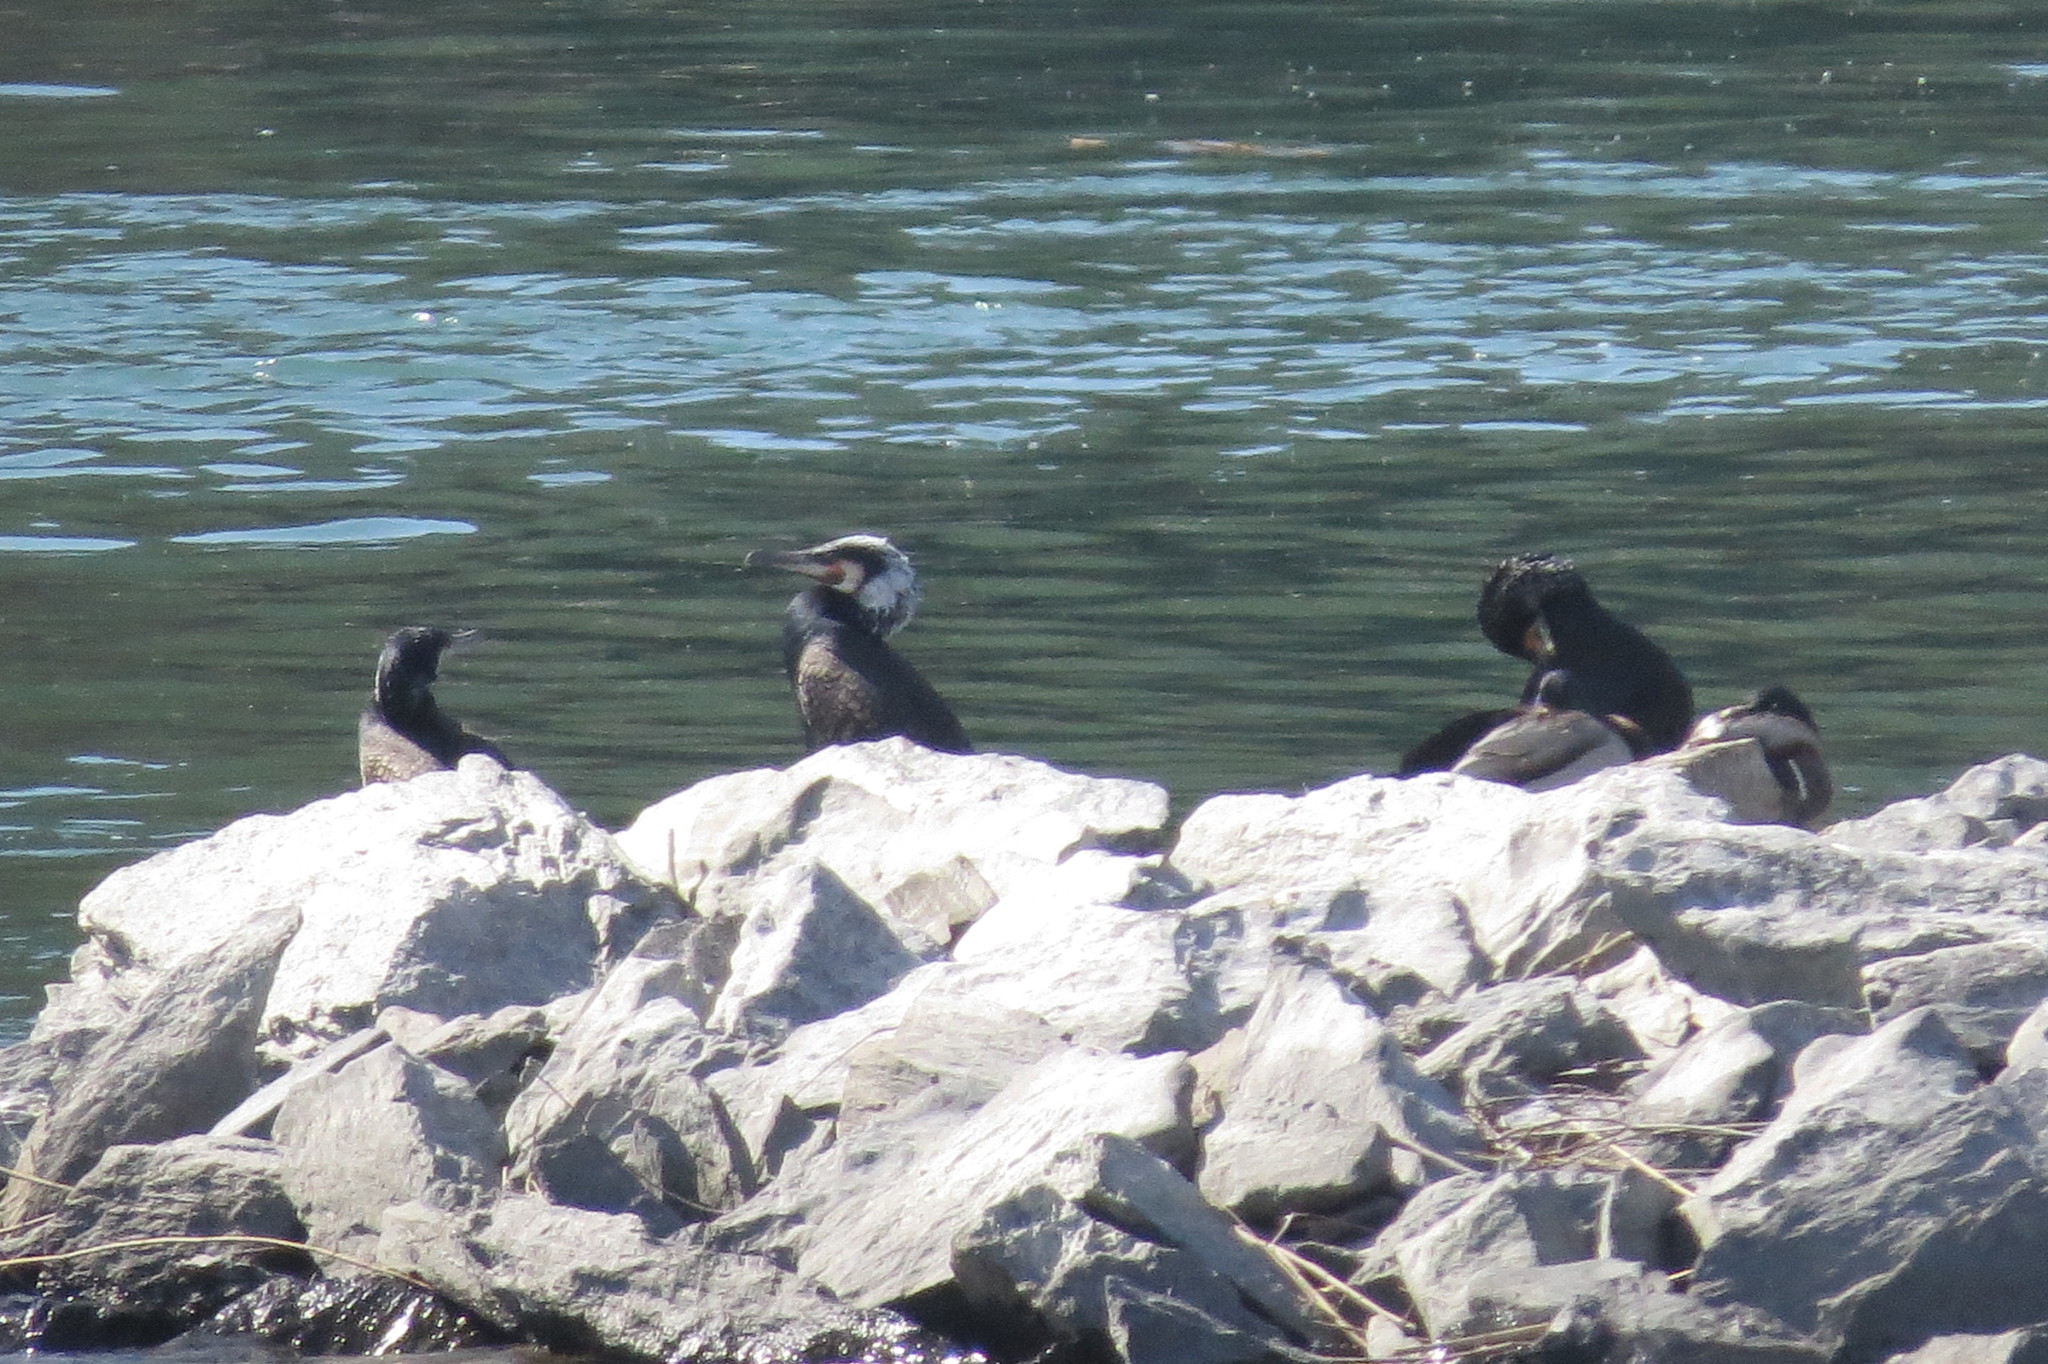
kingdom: Animalia
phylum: Chordata
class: Aves
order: Suliformes
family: Phalacrocoracidae
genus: Phalacrocorax
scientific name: Phalacrocorax carbo
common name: Great cormorant
